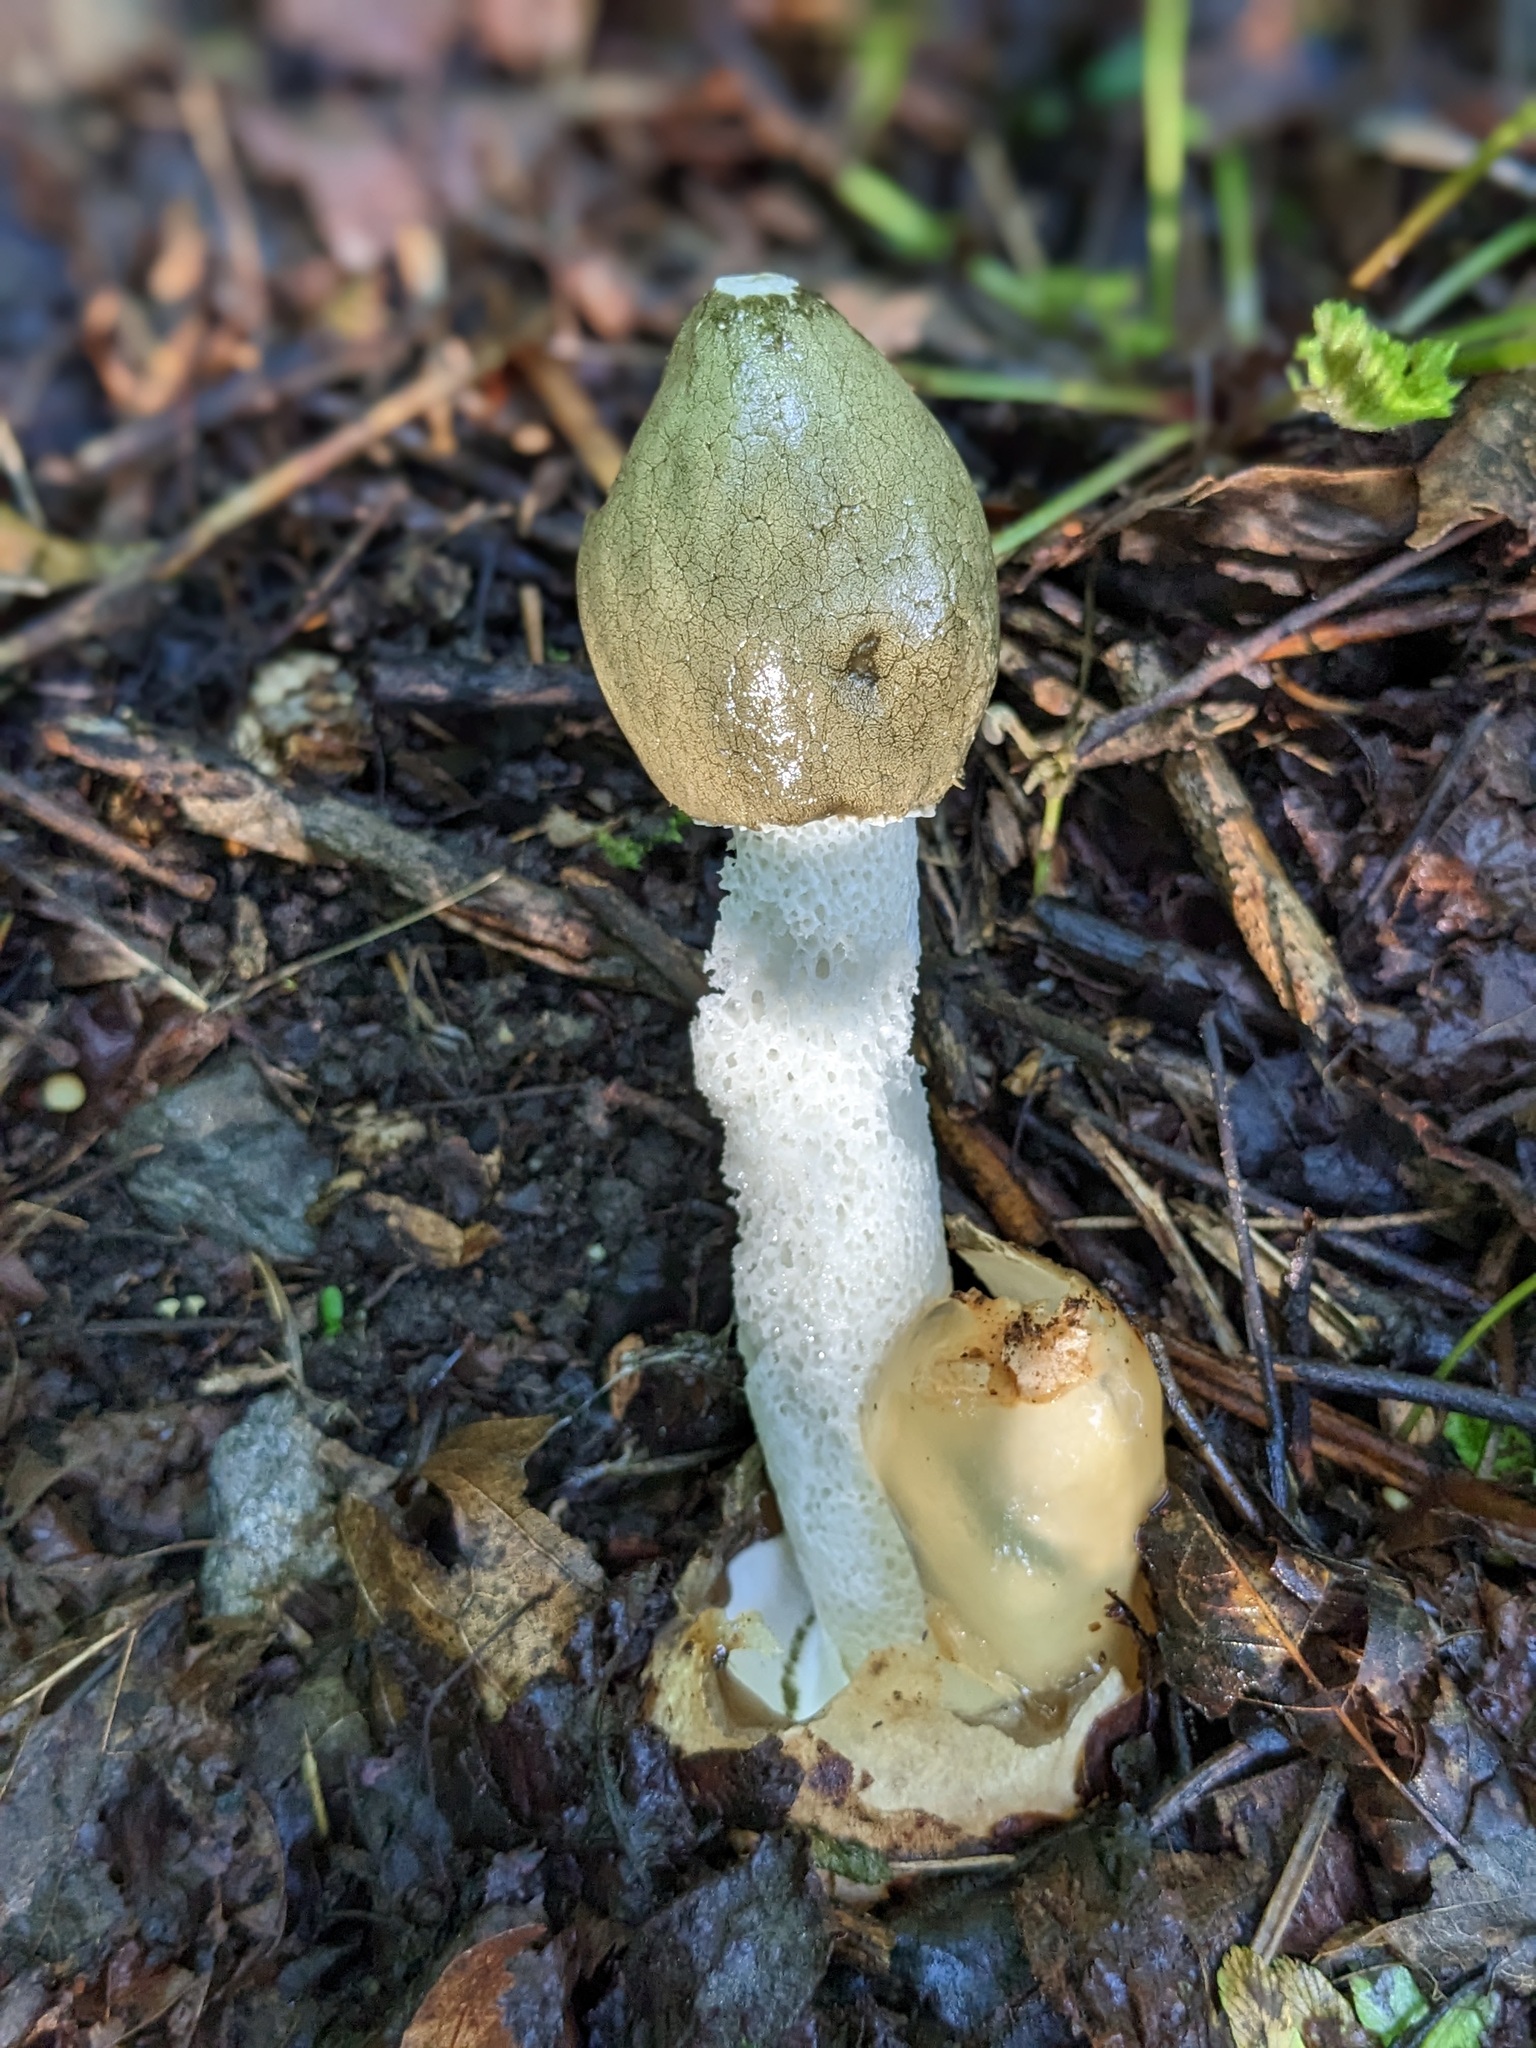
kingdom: Fungi
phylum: Basidiomycota
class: Agaricomycetes
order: Phallales
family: Phallaceae
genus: Phallus
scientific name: Phallus impudicus
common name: Common stinkhorn
